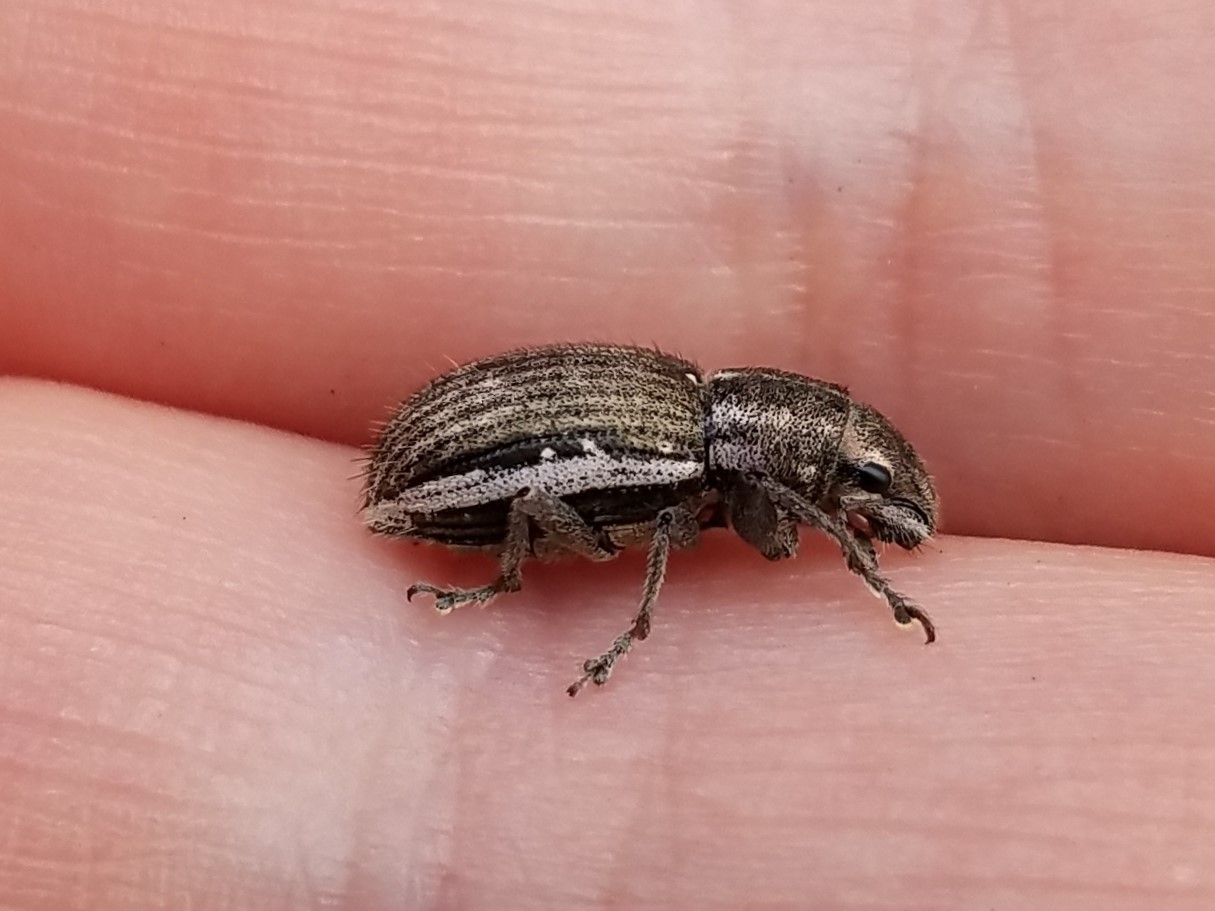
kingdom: Animalia
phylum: Arthropoda
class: Insecta
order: Coleoptera
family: Curculionidae
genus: Naupactus
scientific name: Naupactus leucoloma
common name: Whitefringed beetle
